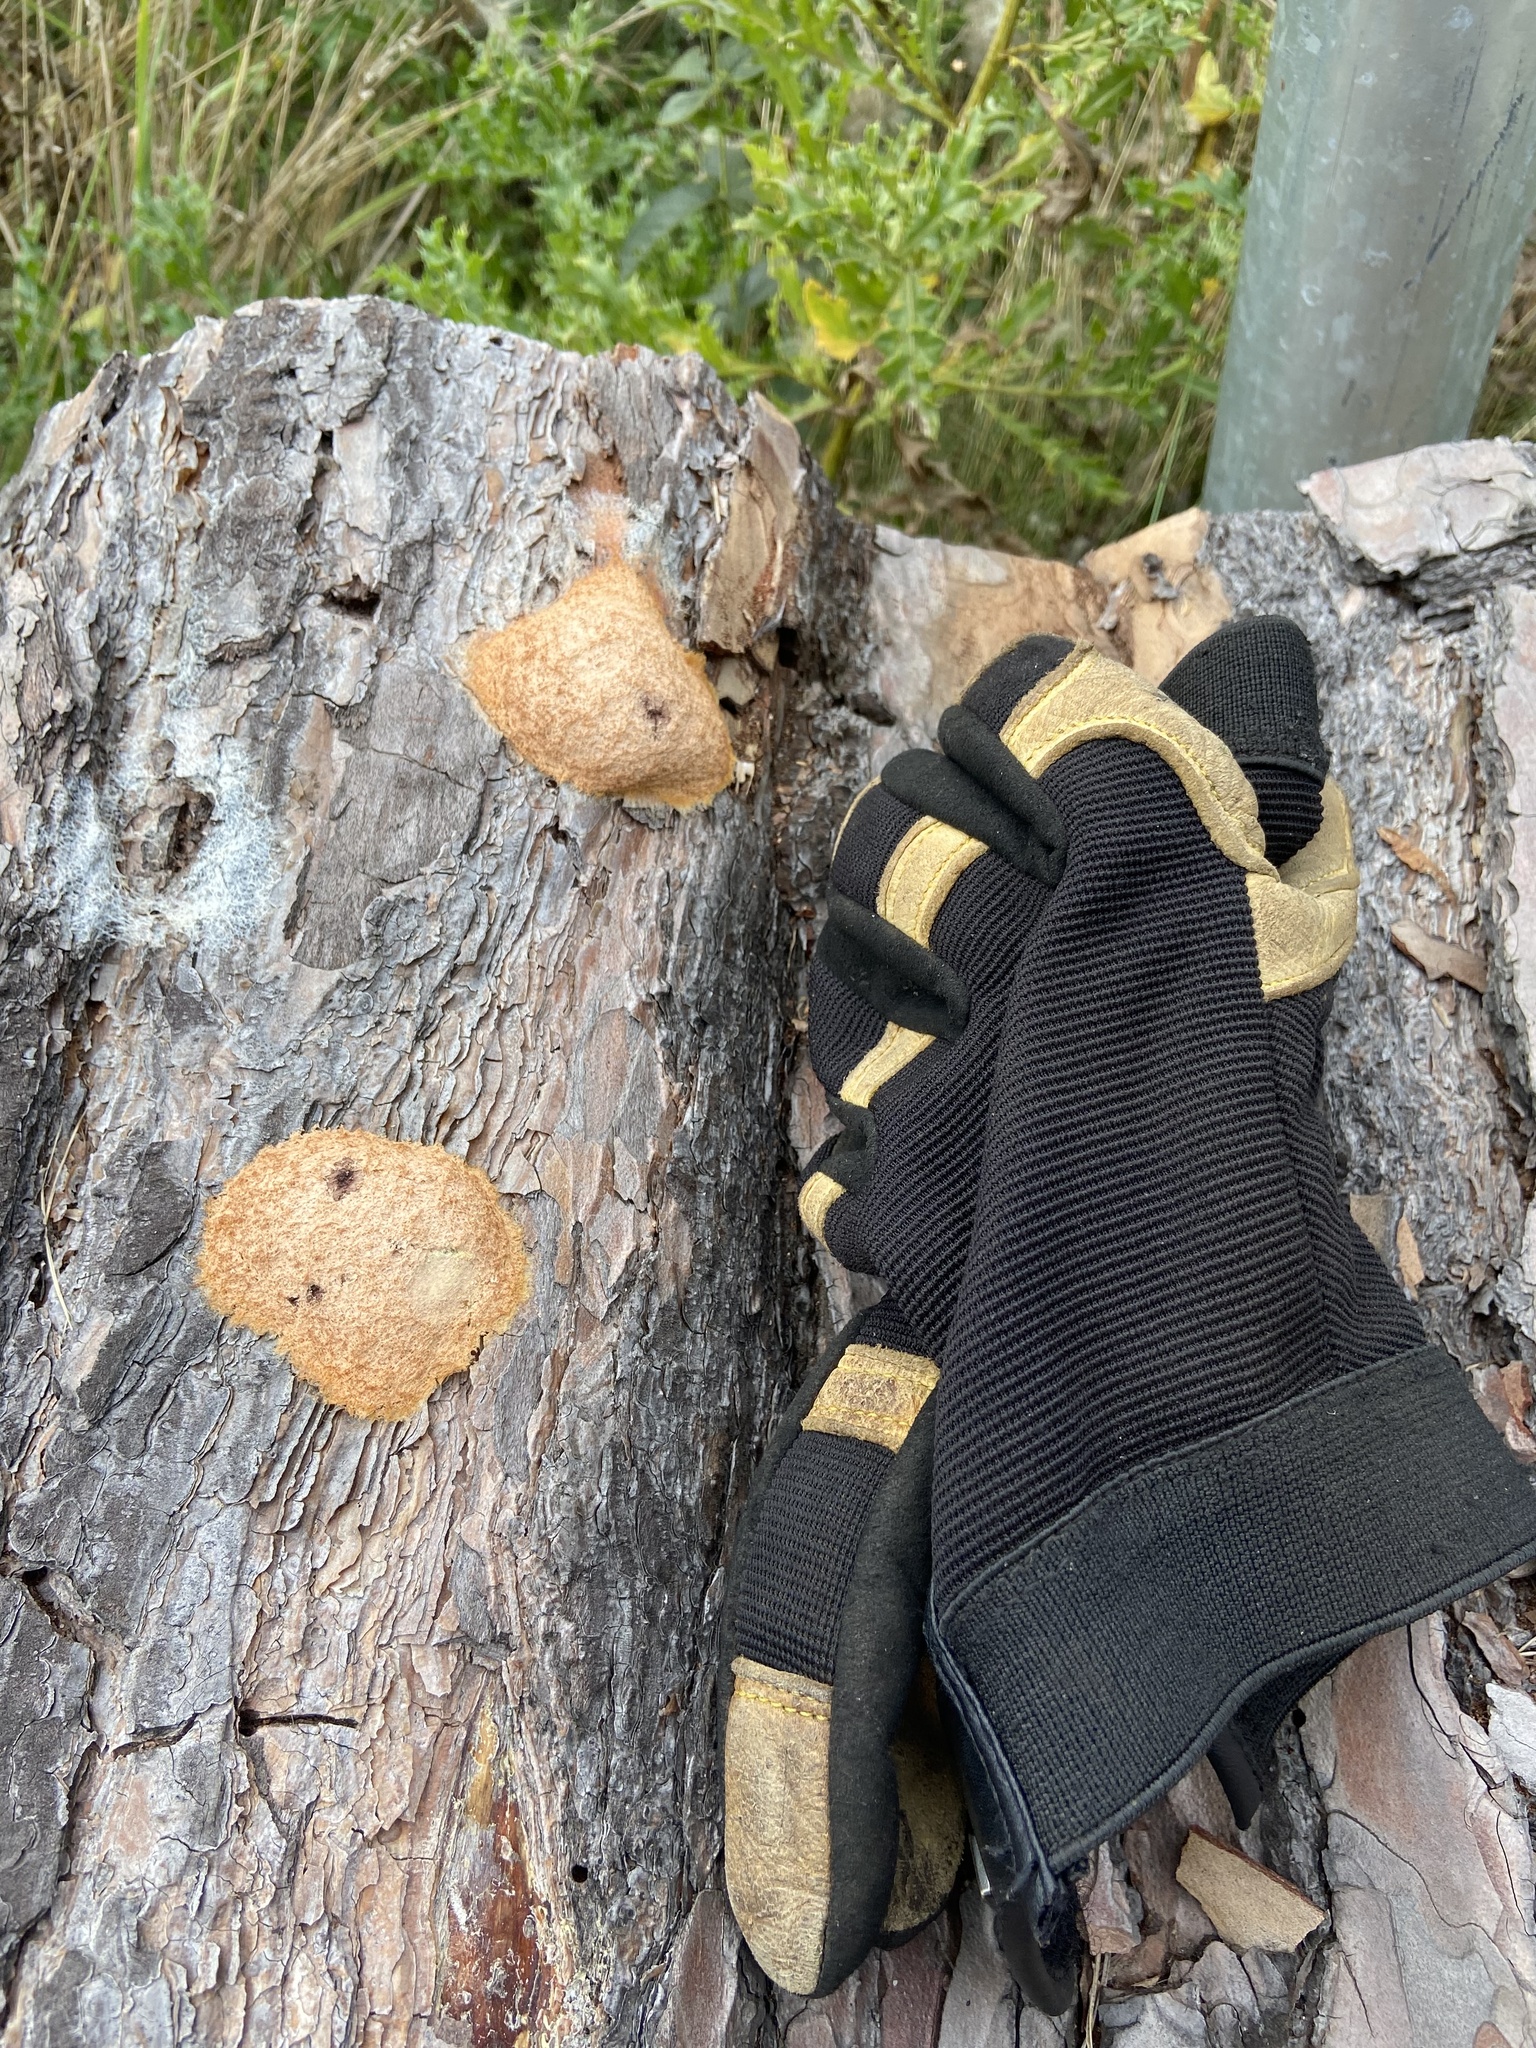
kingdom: Protozoa
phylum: Mycetozoa
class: Myxomycetes
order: Physarales
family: Physaraceae
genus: Fuligo
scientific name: Fuligo septica
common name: Dog vomit slime mold
